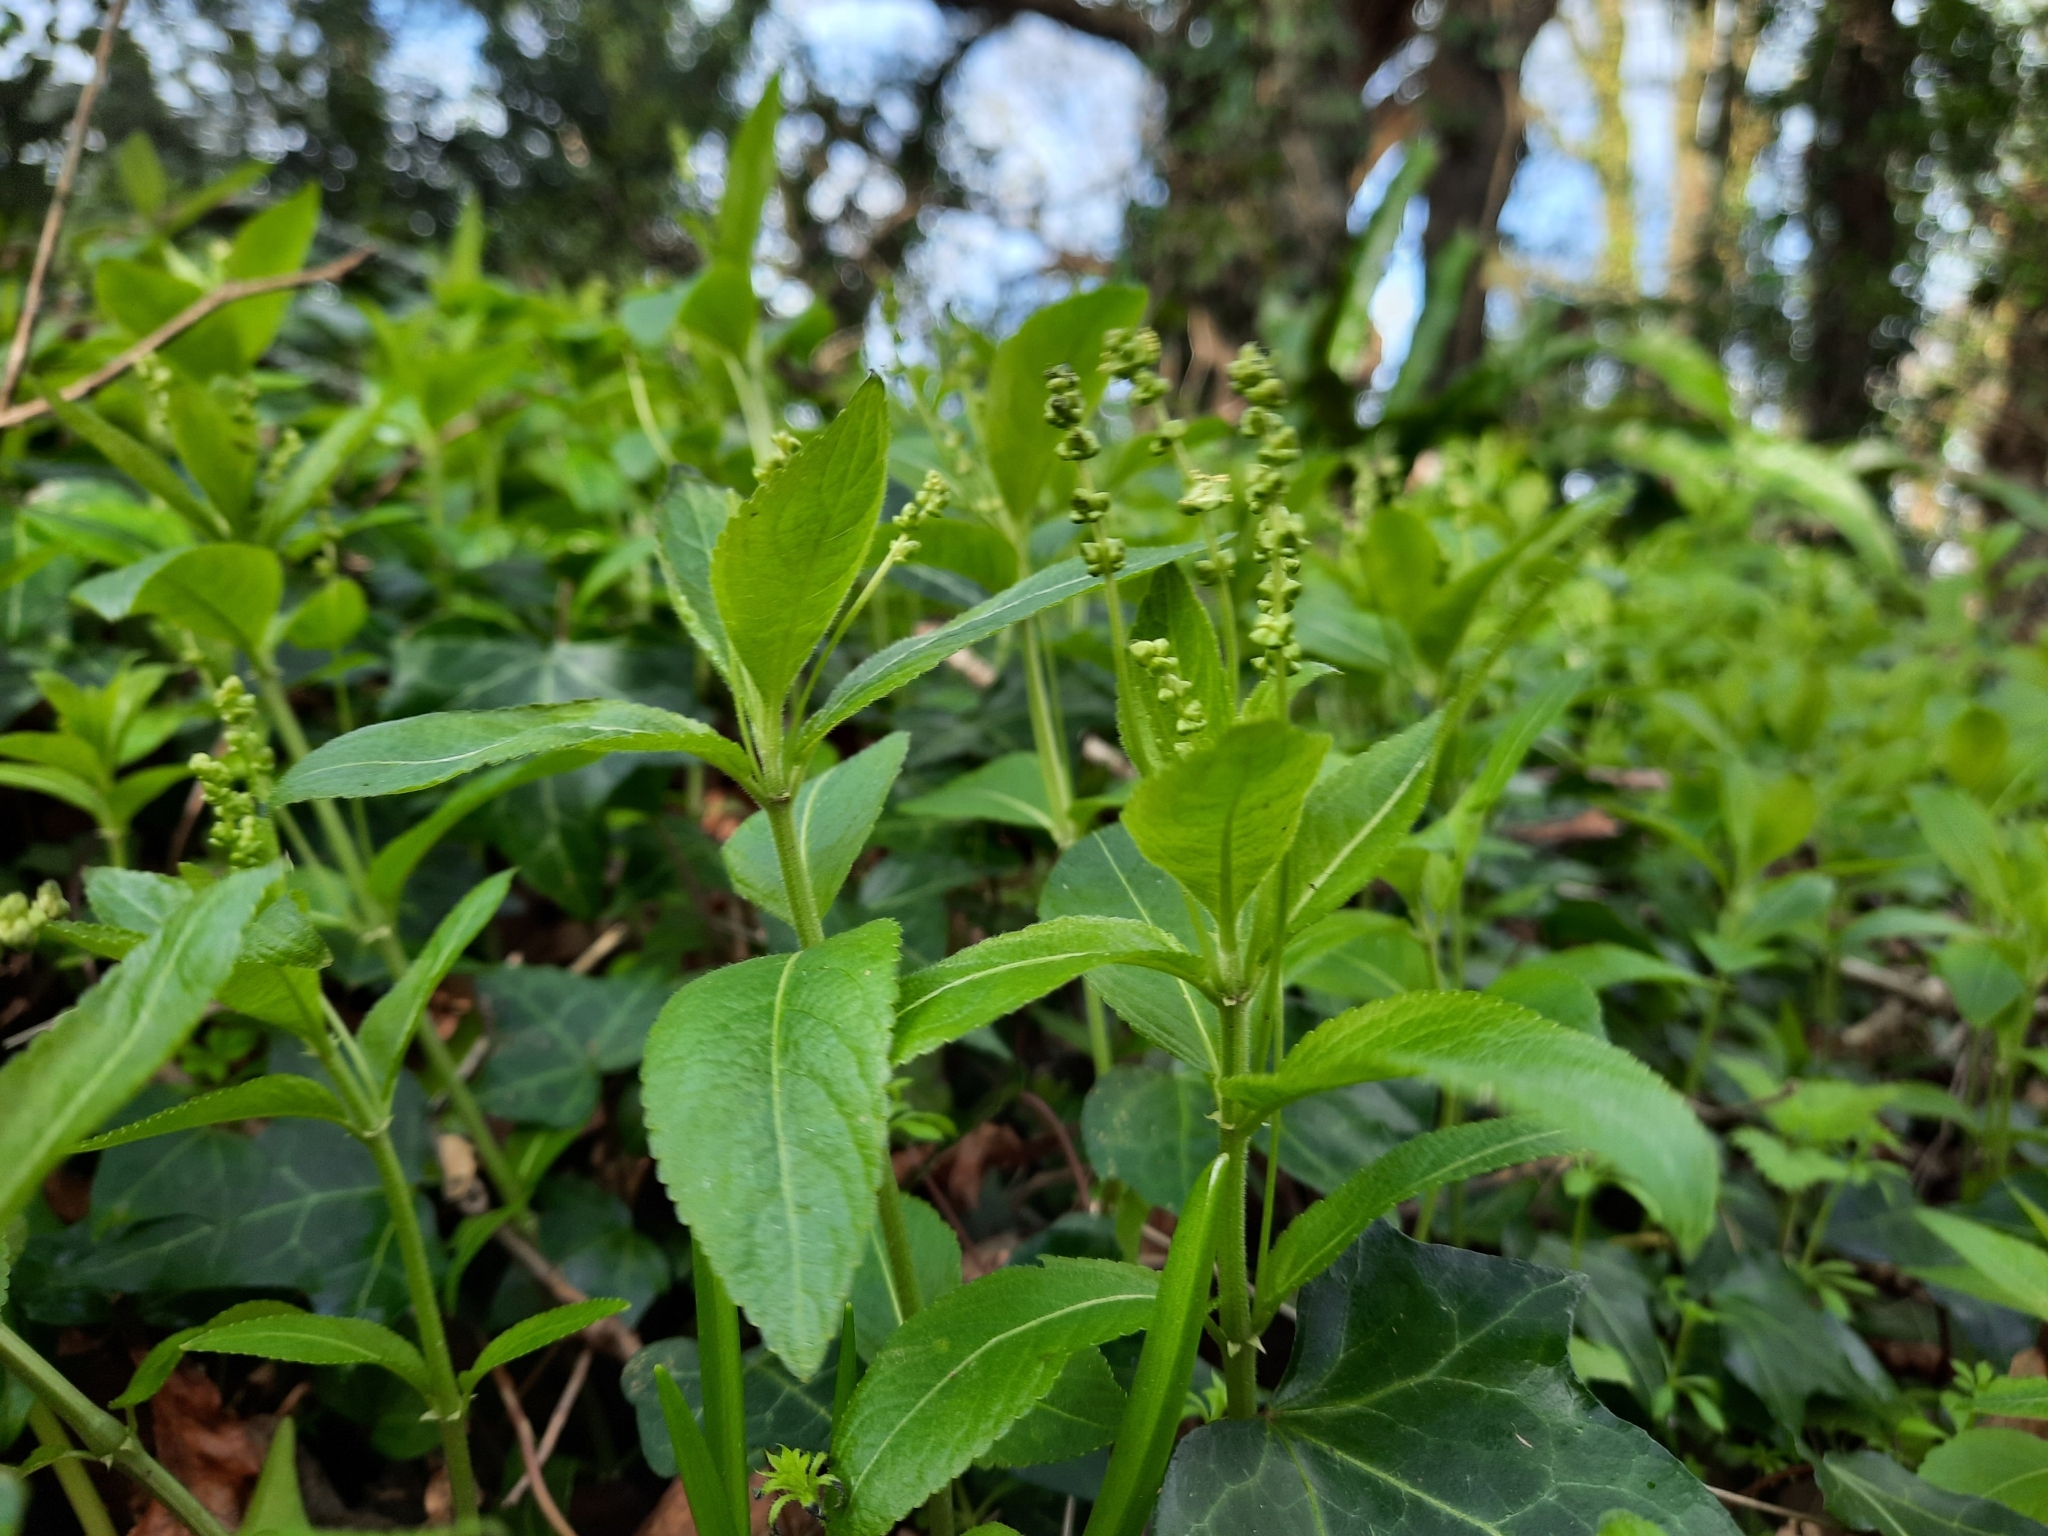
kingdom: Plantae
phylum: Tracheophyta
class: Magnoliopsida
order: Malpighiales
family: Euphorbiaceae
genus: Mercurialis
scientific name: Mercurialis perennis
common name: Dog mercury
